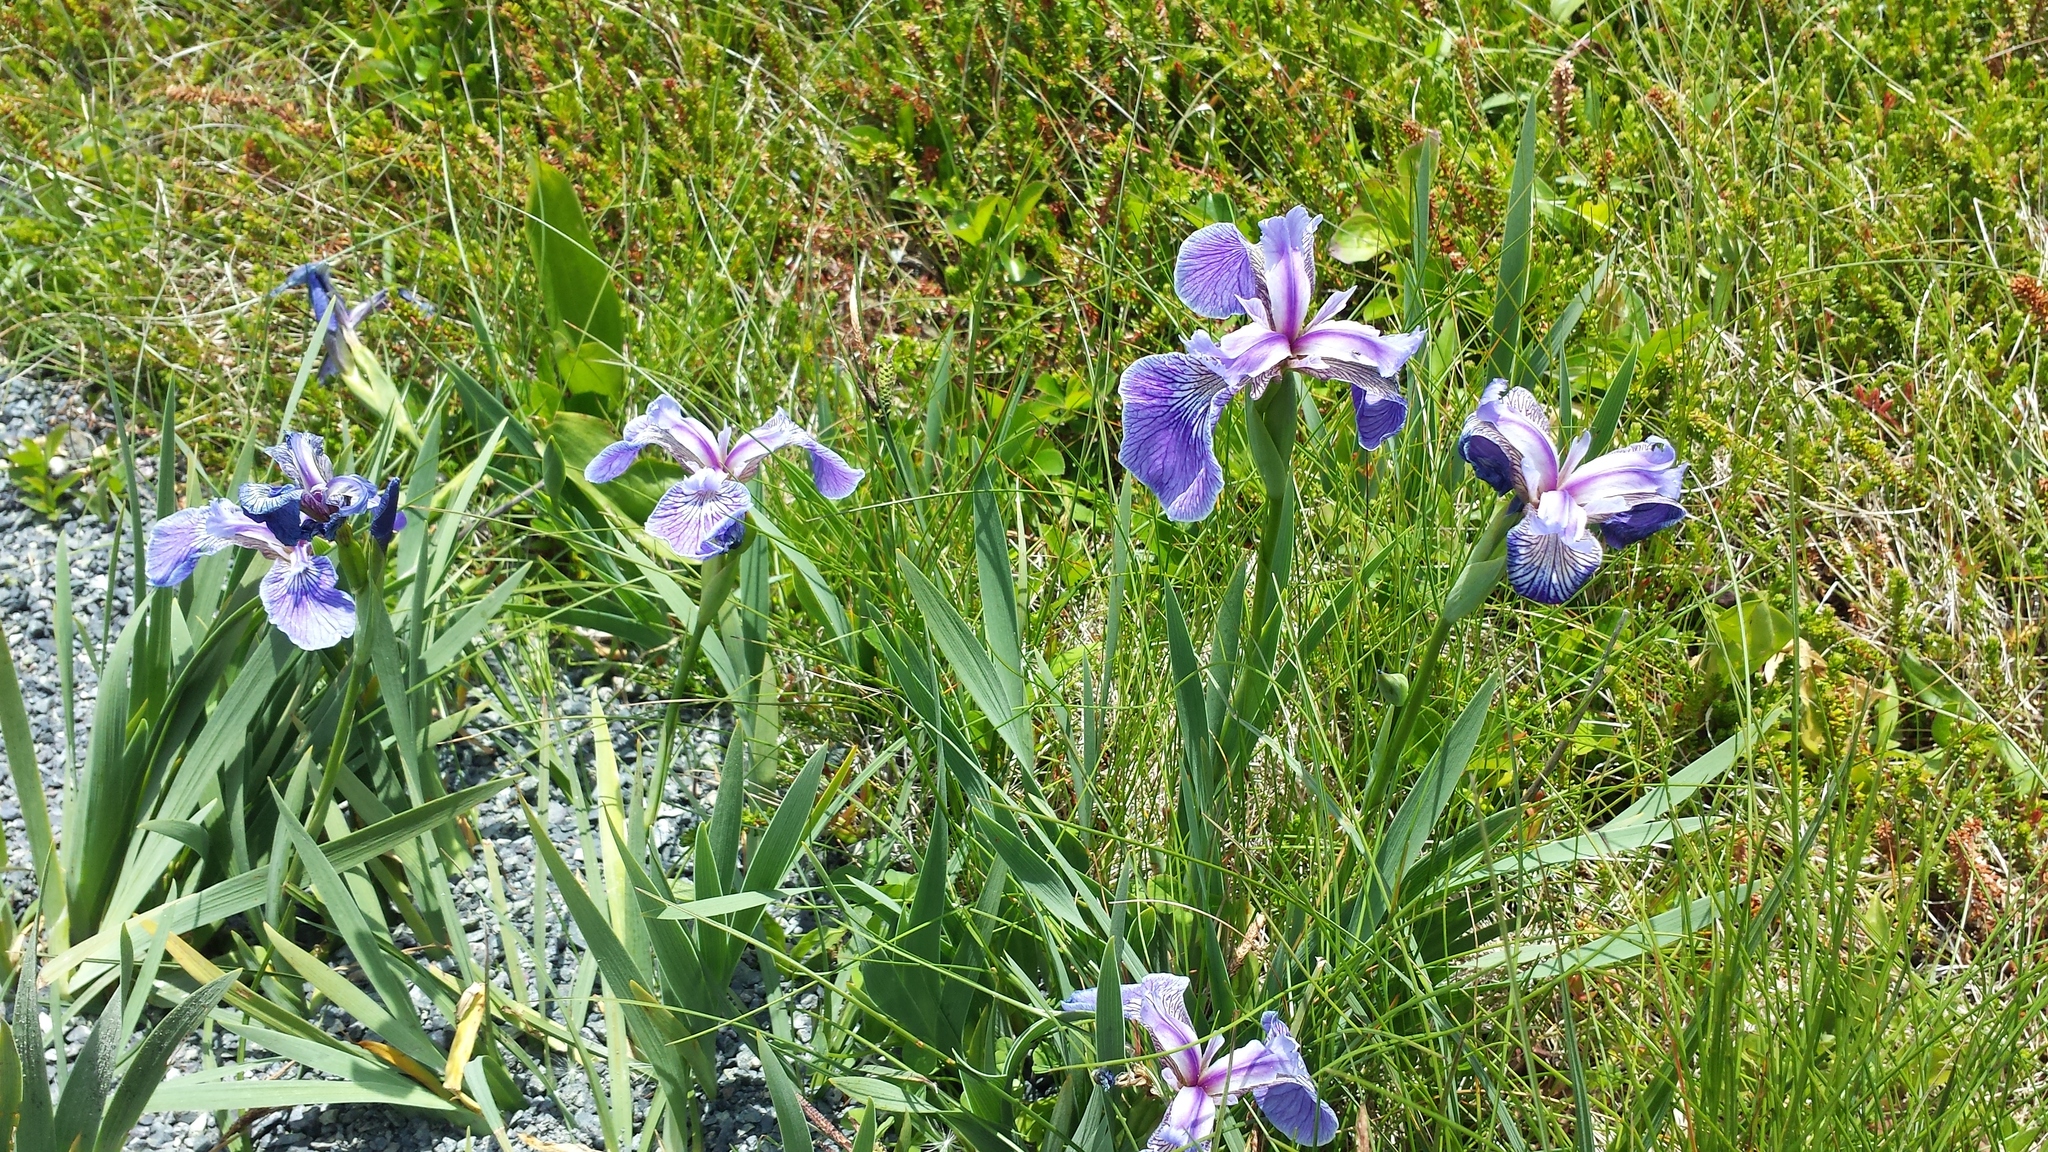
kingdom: Plantae
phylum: Tracheophyta
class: Liliopsida
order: Asparagales
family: Iridaceae
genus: Iris
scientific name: Iris versicolor
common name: Purple iris
